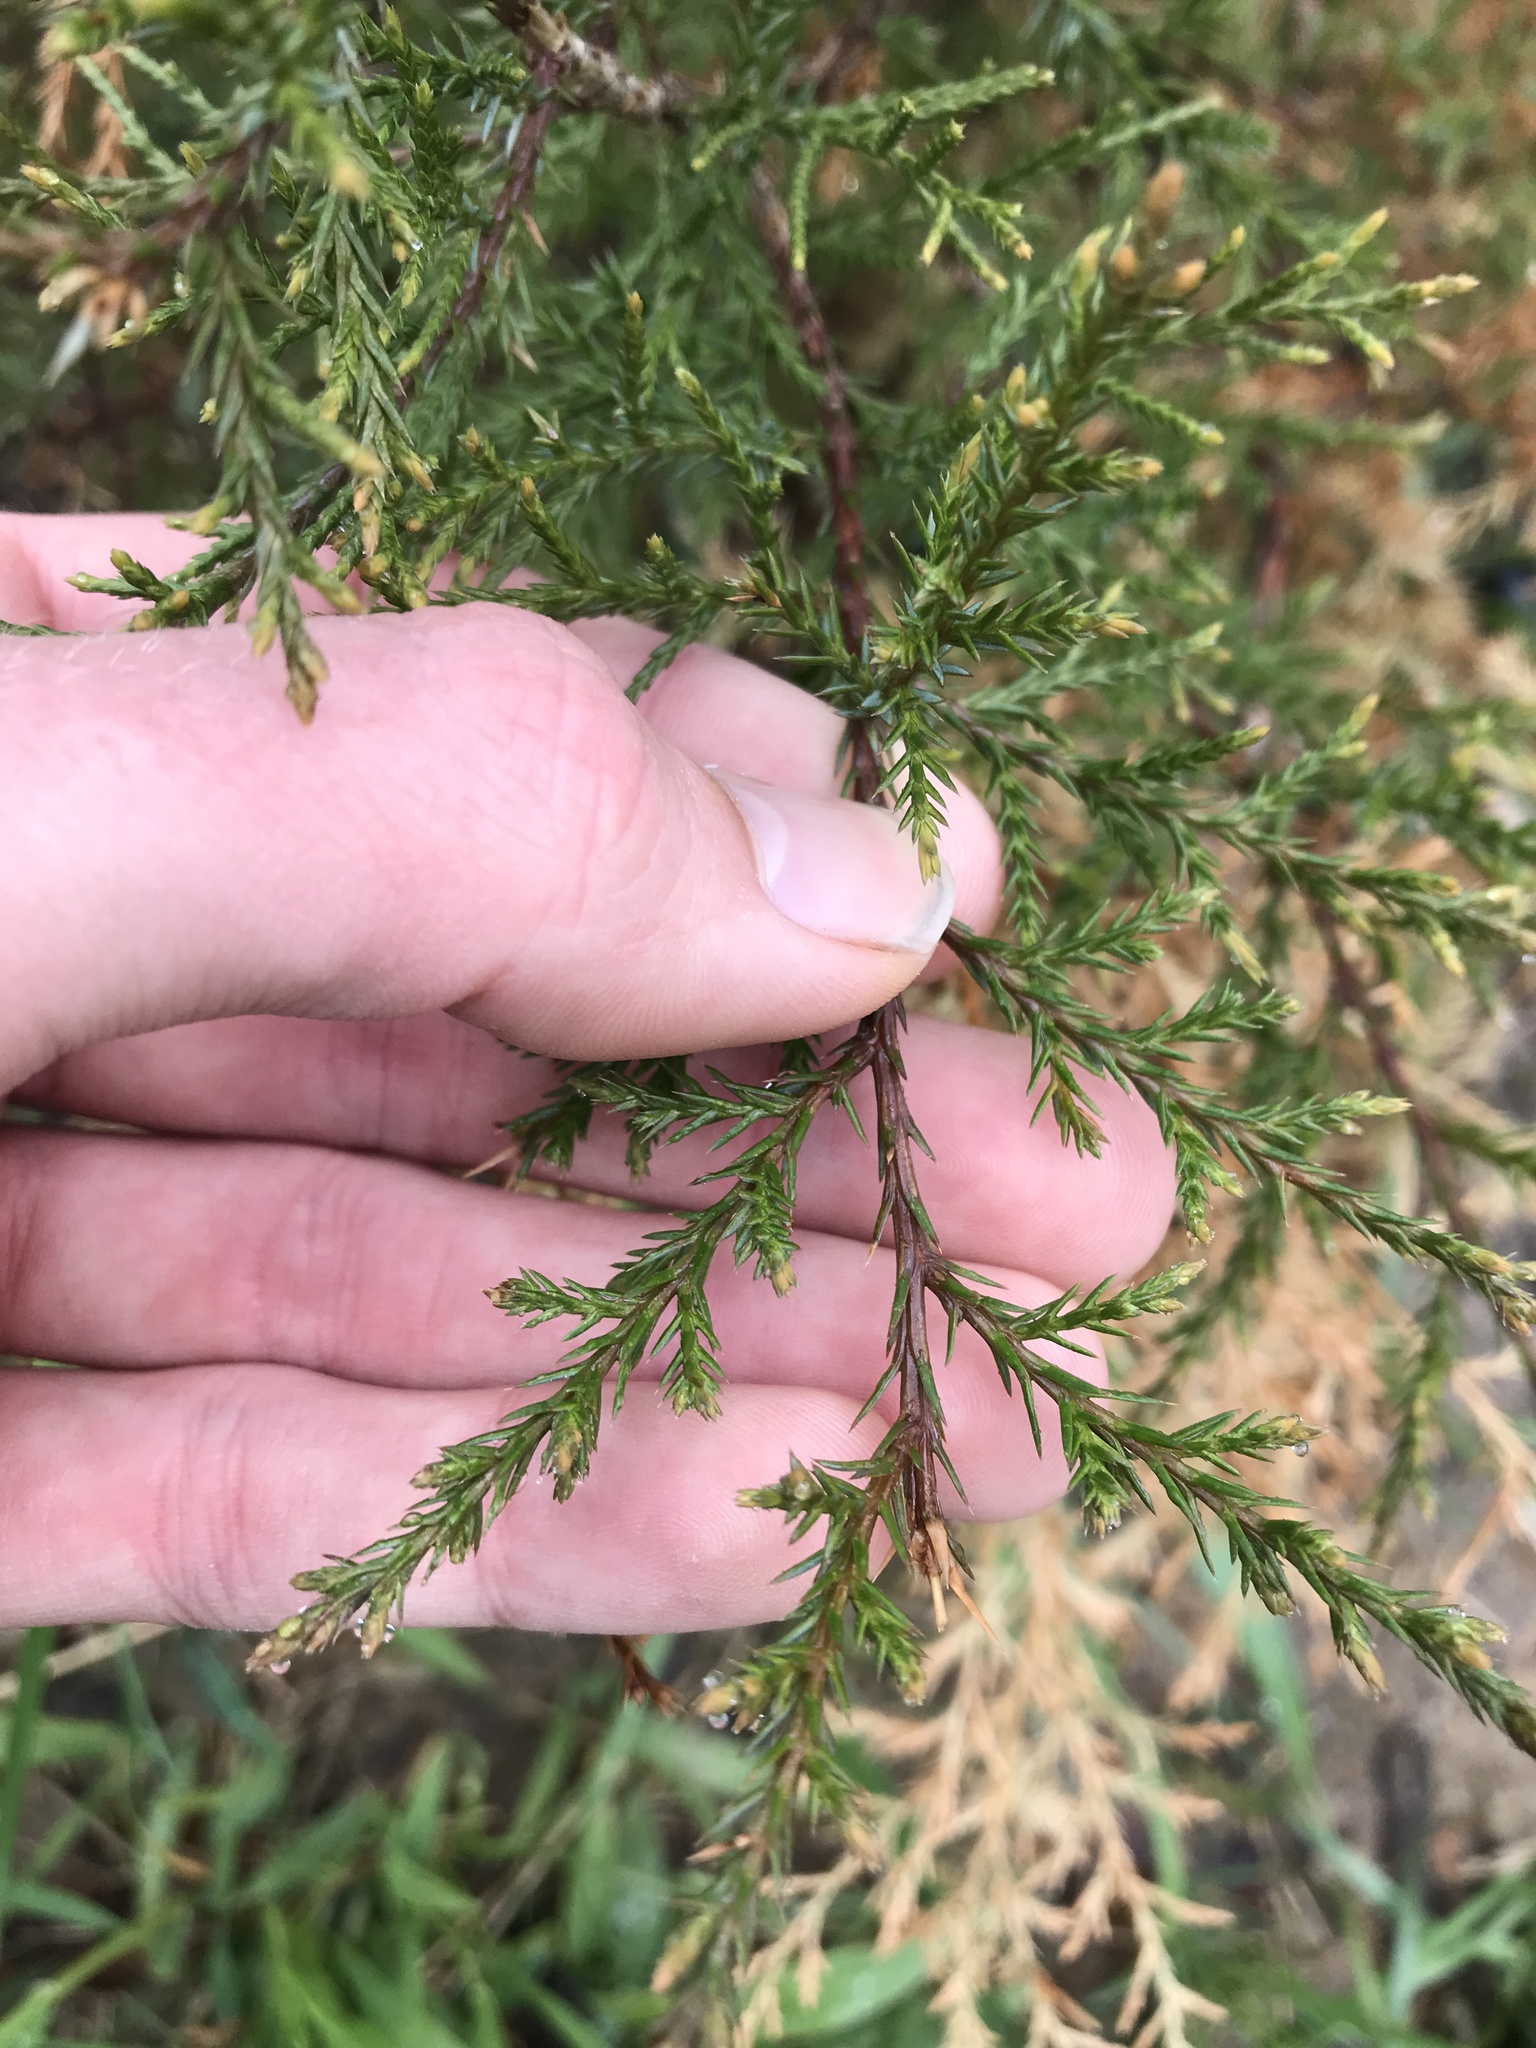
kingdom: Plantae
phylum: Tracheophyta
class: Pinopsida
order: Pinales
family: Cupressaceae
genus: Juniperus
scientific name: Juniperus virginiana
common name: Red juniper
